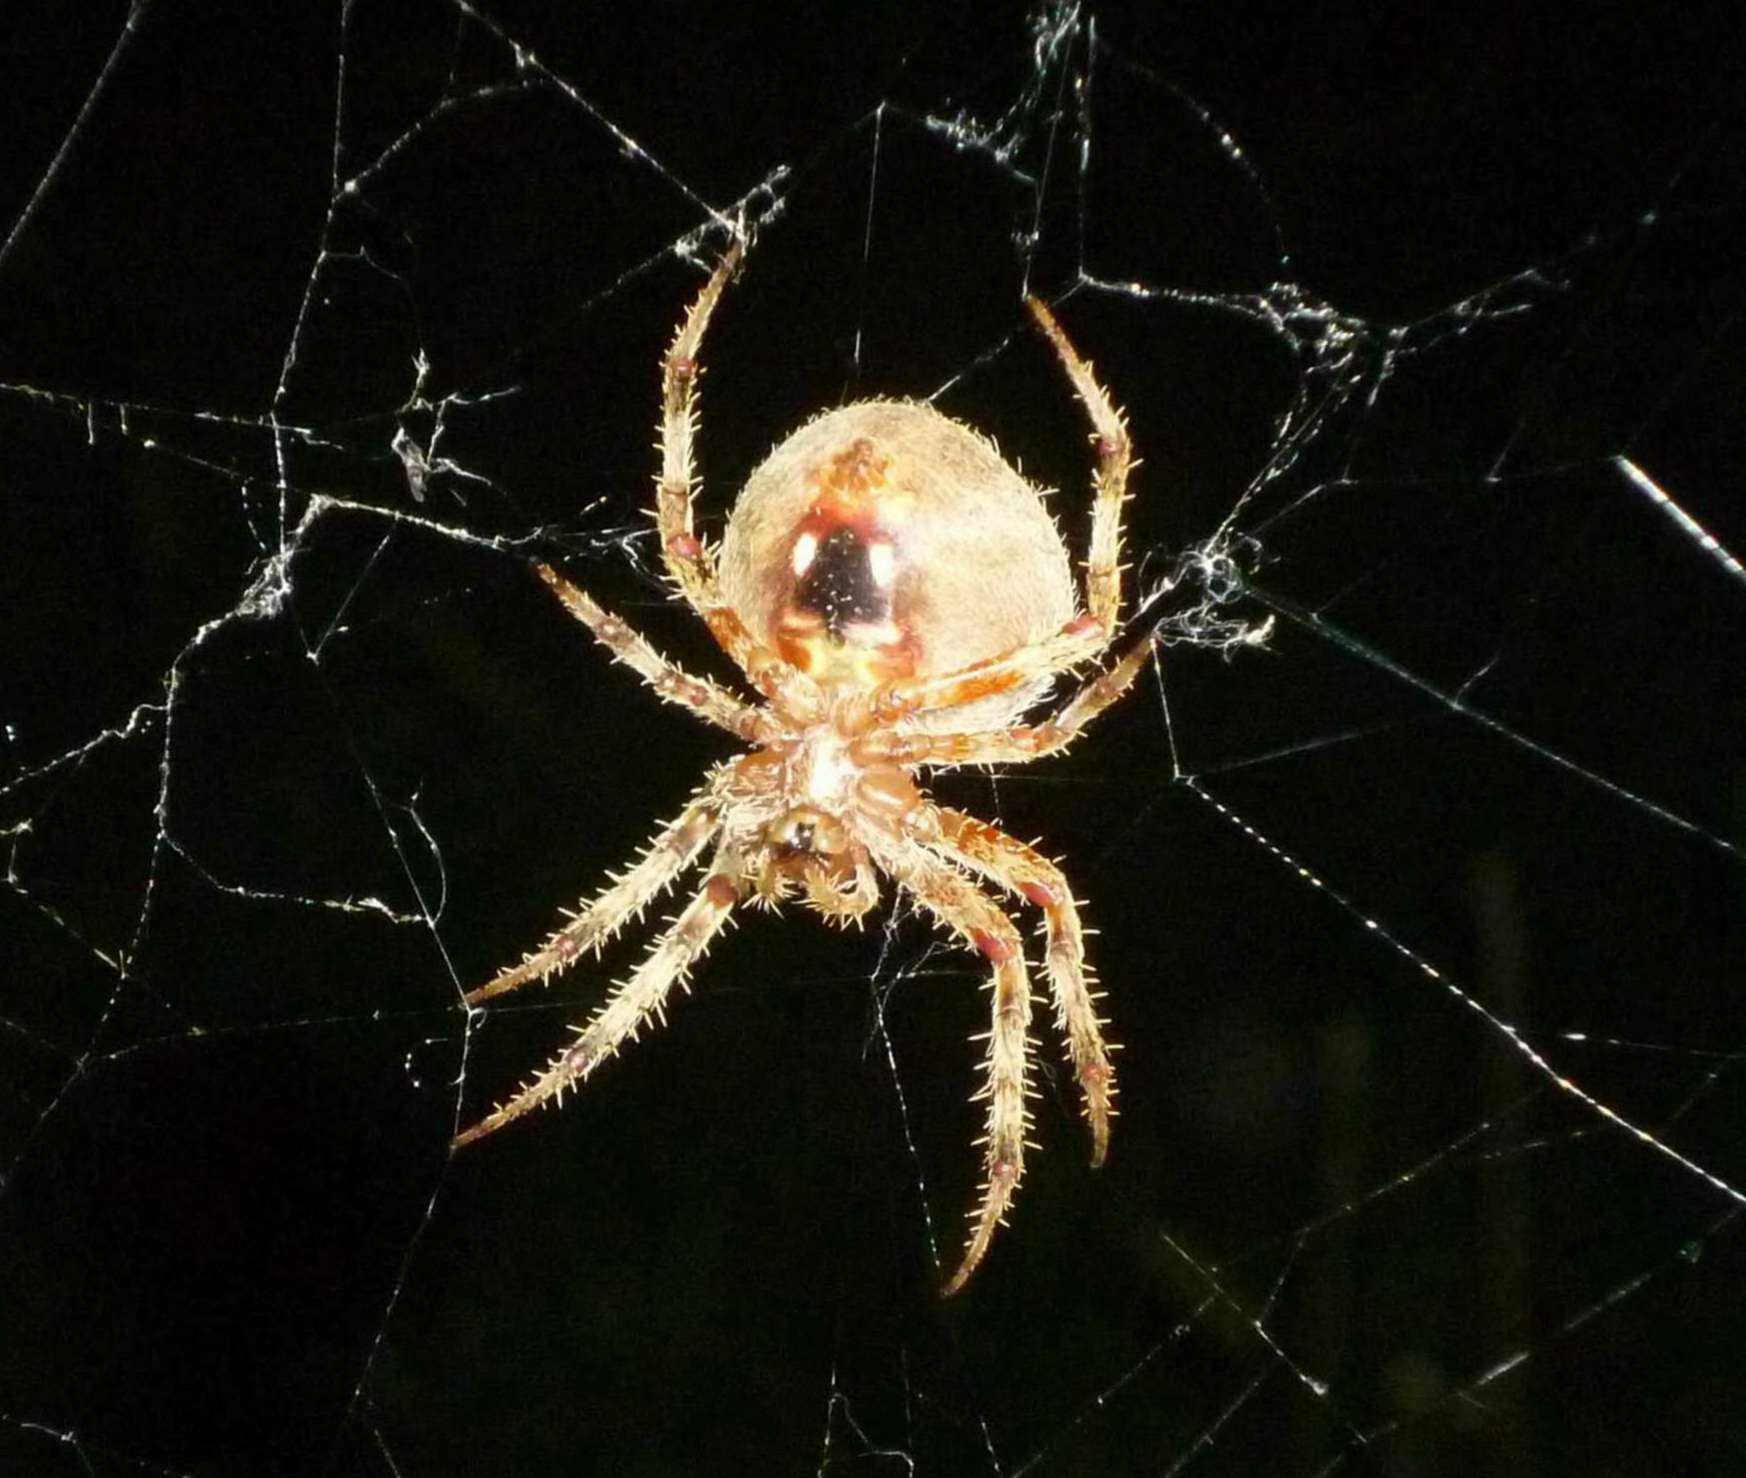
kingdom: Animalia
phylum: Arthropoda
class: Arachnida
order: Araneae
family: Araneidae
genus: Neoscona
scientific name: Neoscona crucifera
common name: Spotted orbweaver
